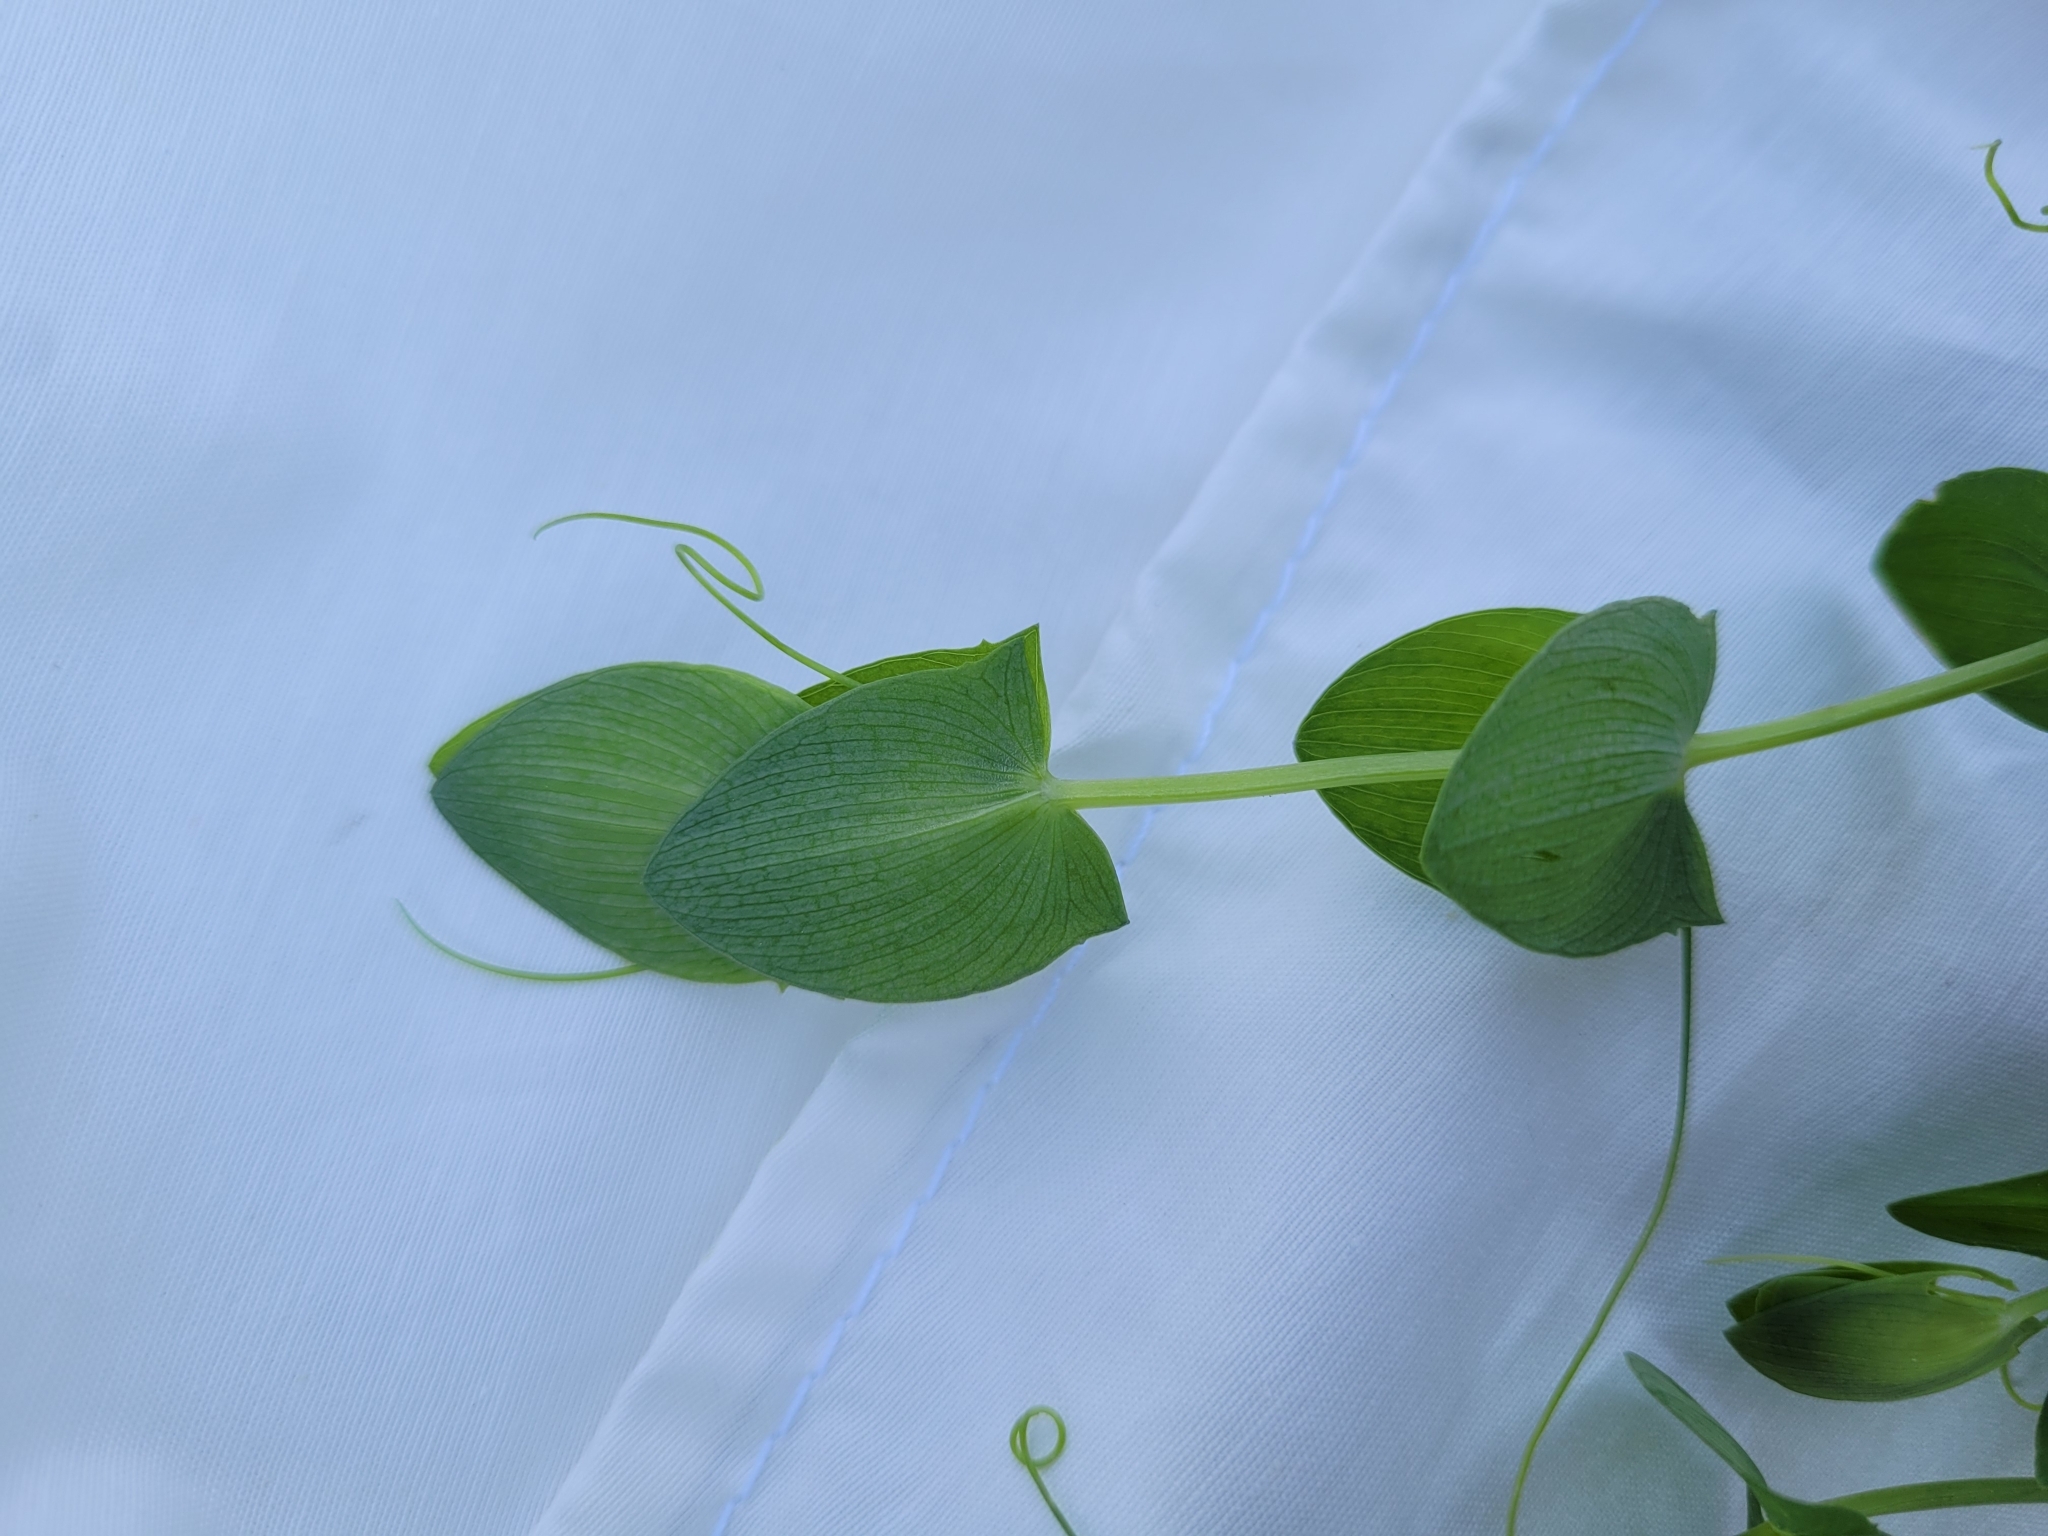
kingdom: Plantae
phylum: Tracheophyta
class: Magnoliopsida
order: Fabales
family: Fabaceae
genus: Lathyrus
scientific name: Lathyrus aphaca
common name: Yellow vetchling
